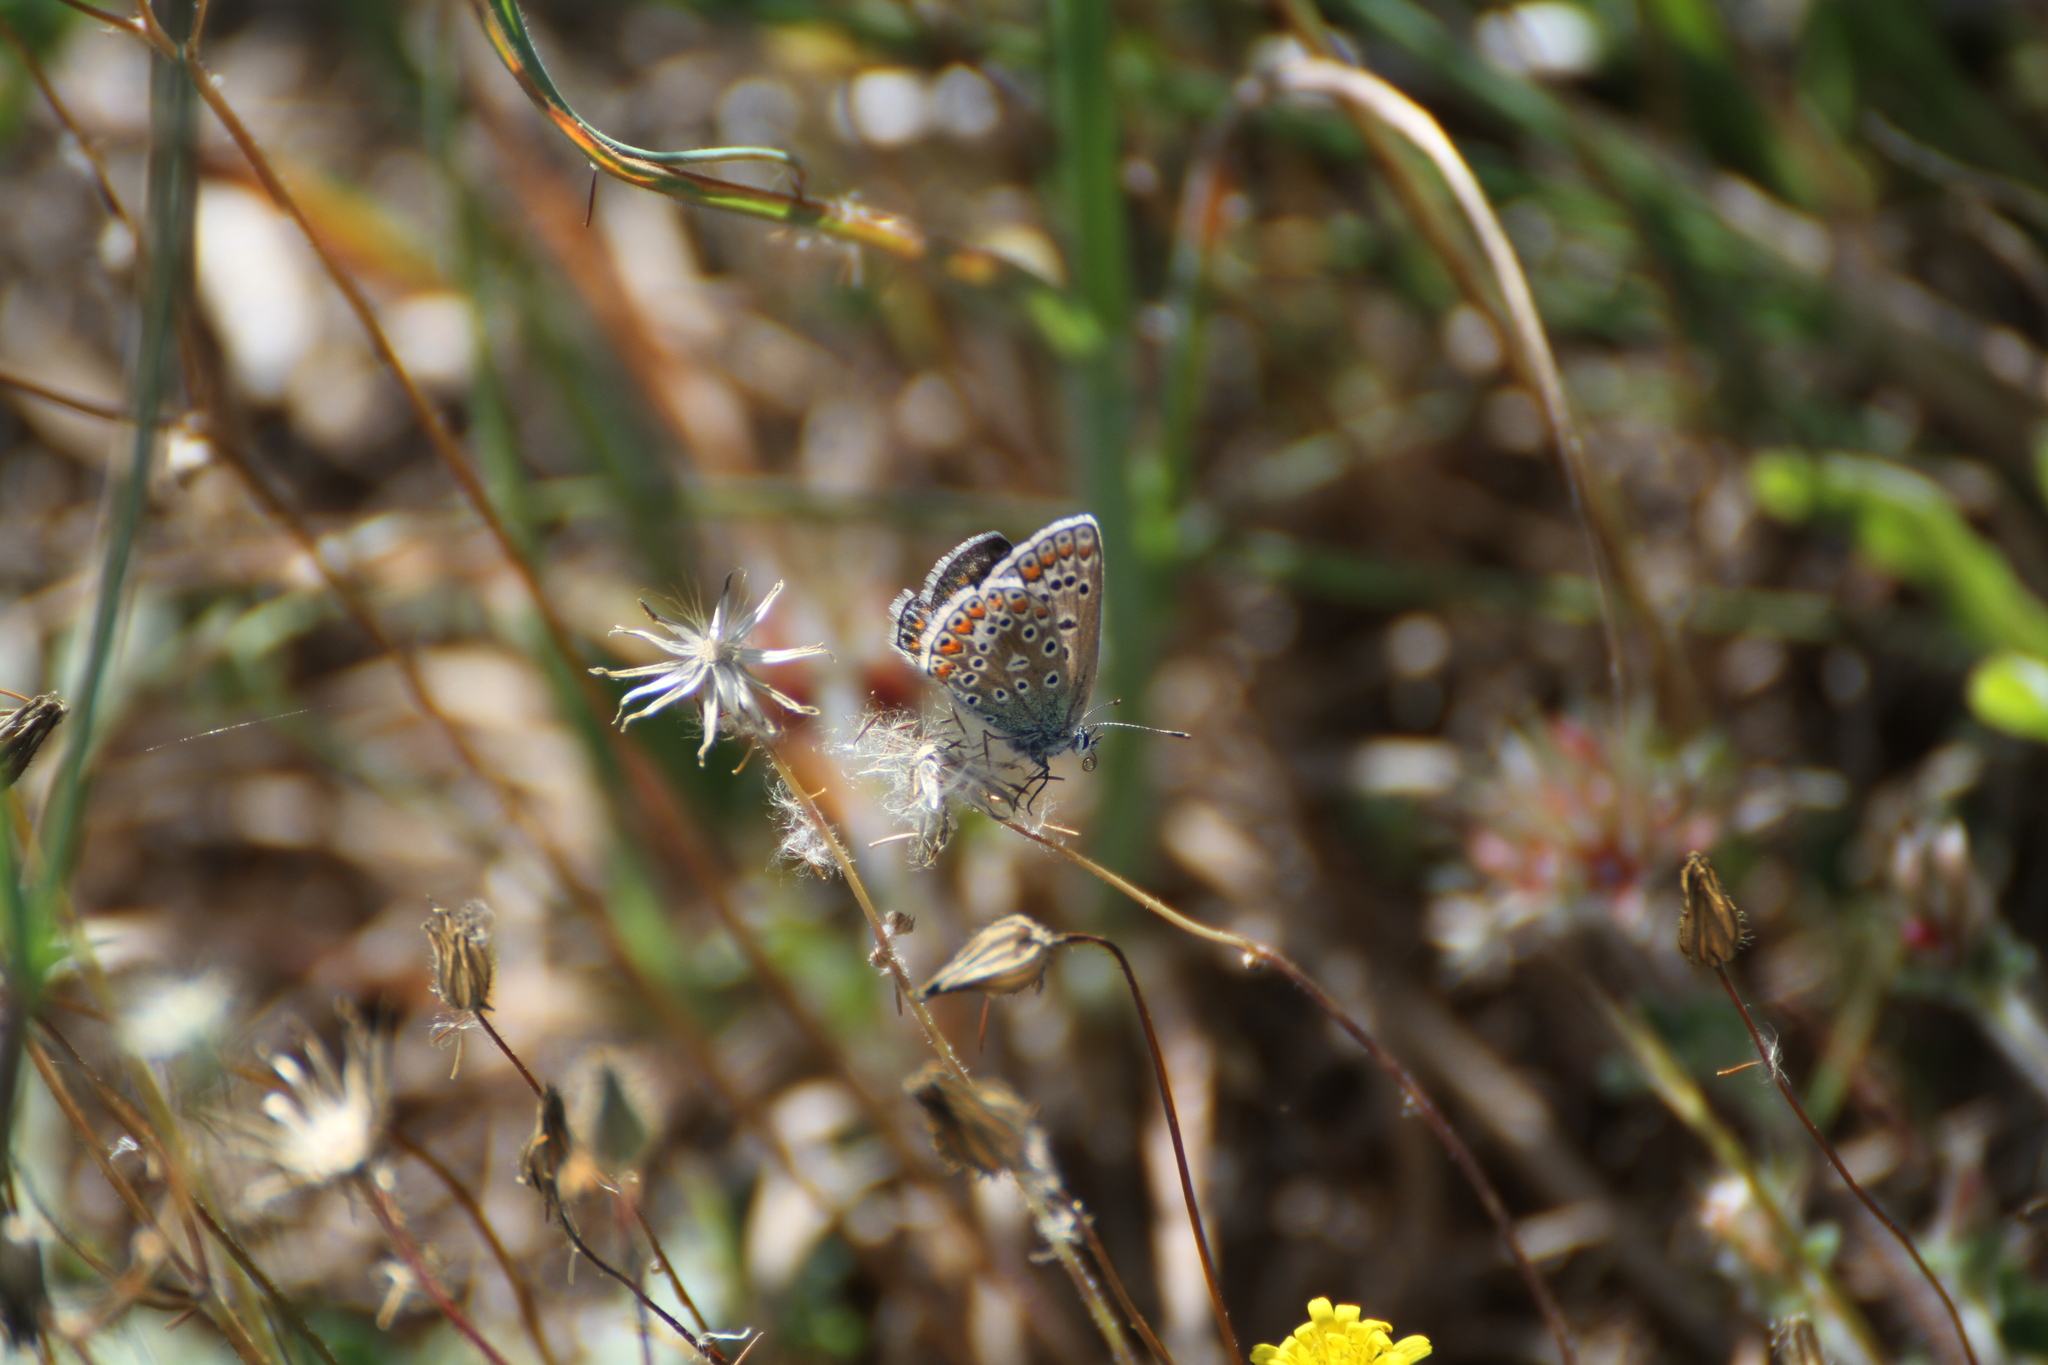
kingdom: Animalia
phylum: Arthropoda
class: Insecta
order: Lepidoptera
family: Lycaenidae
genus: Polyommatus
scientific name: Polyommatus icarus
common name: Common blue
